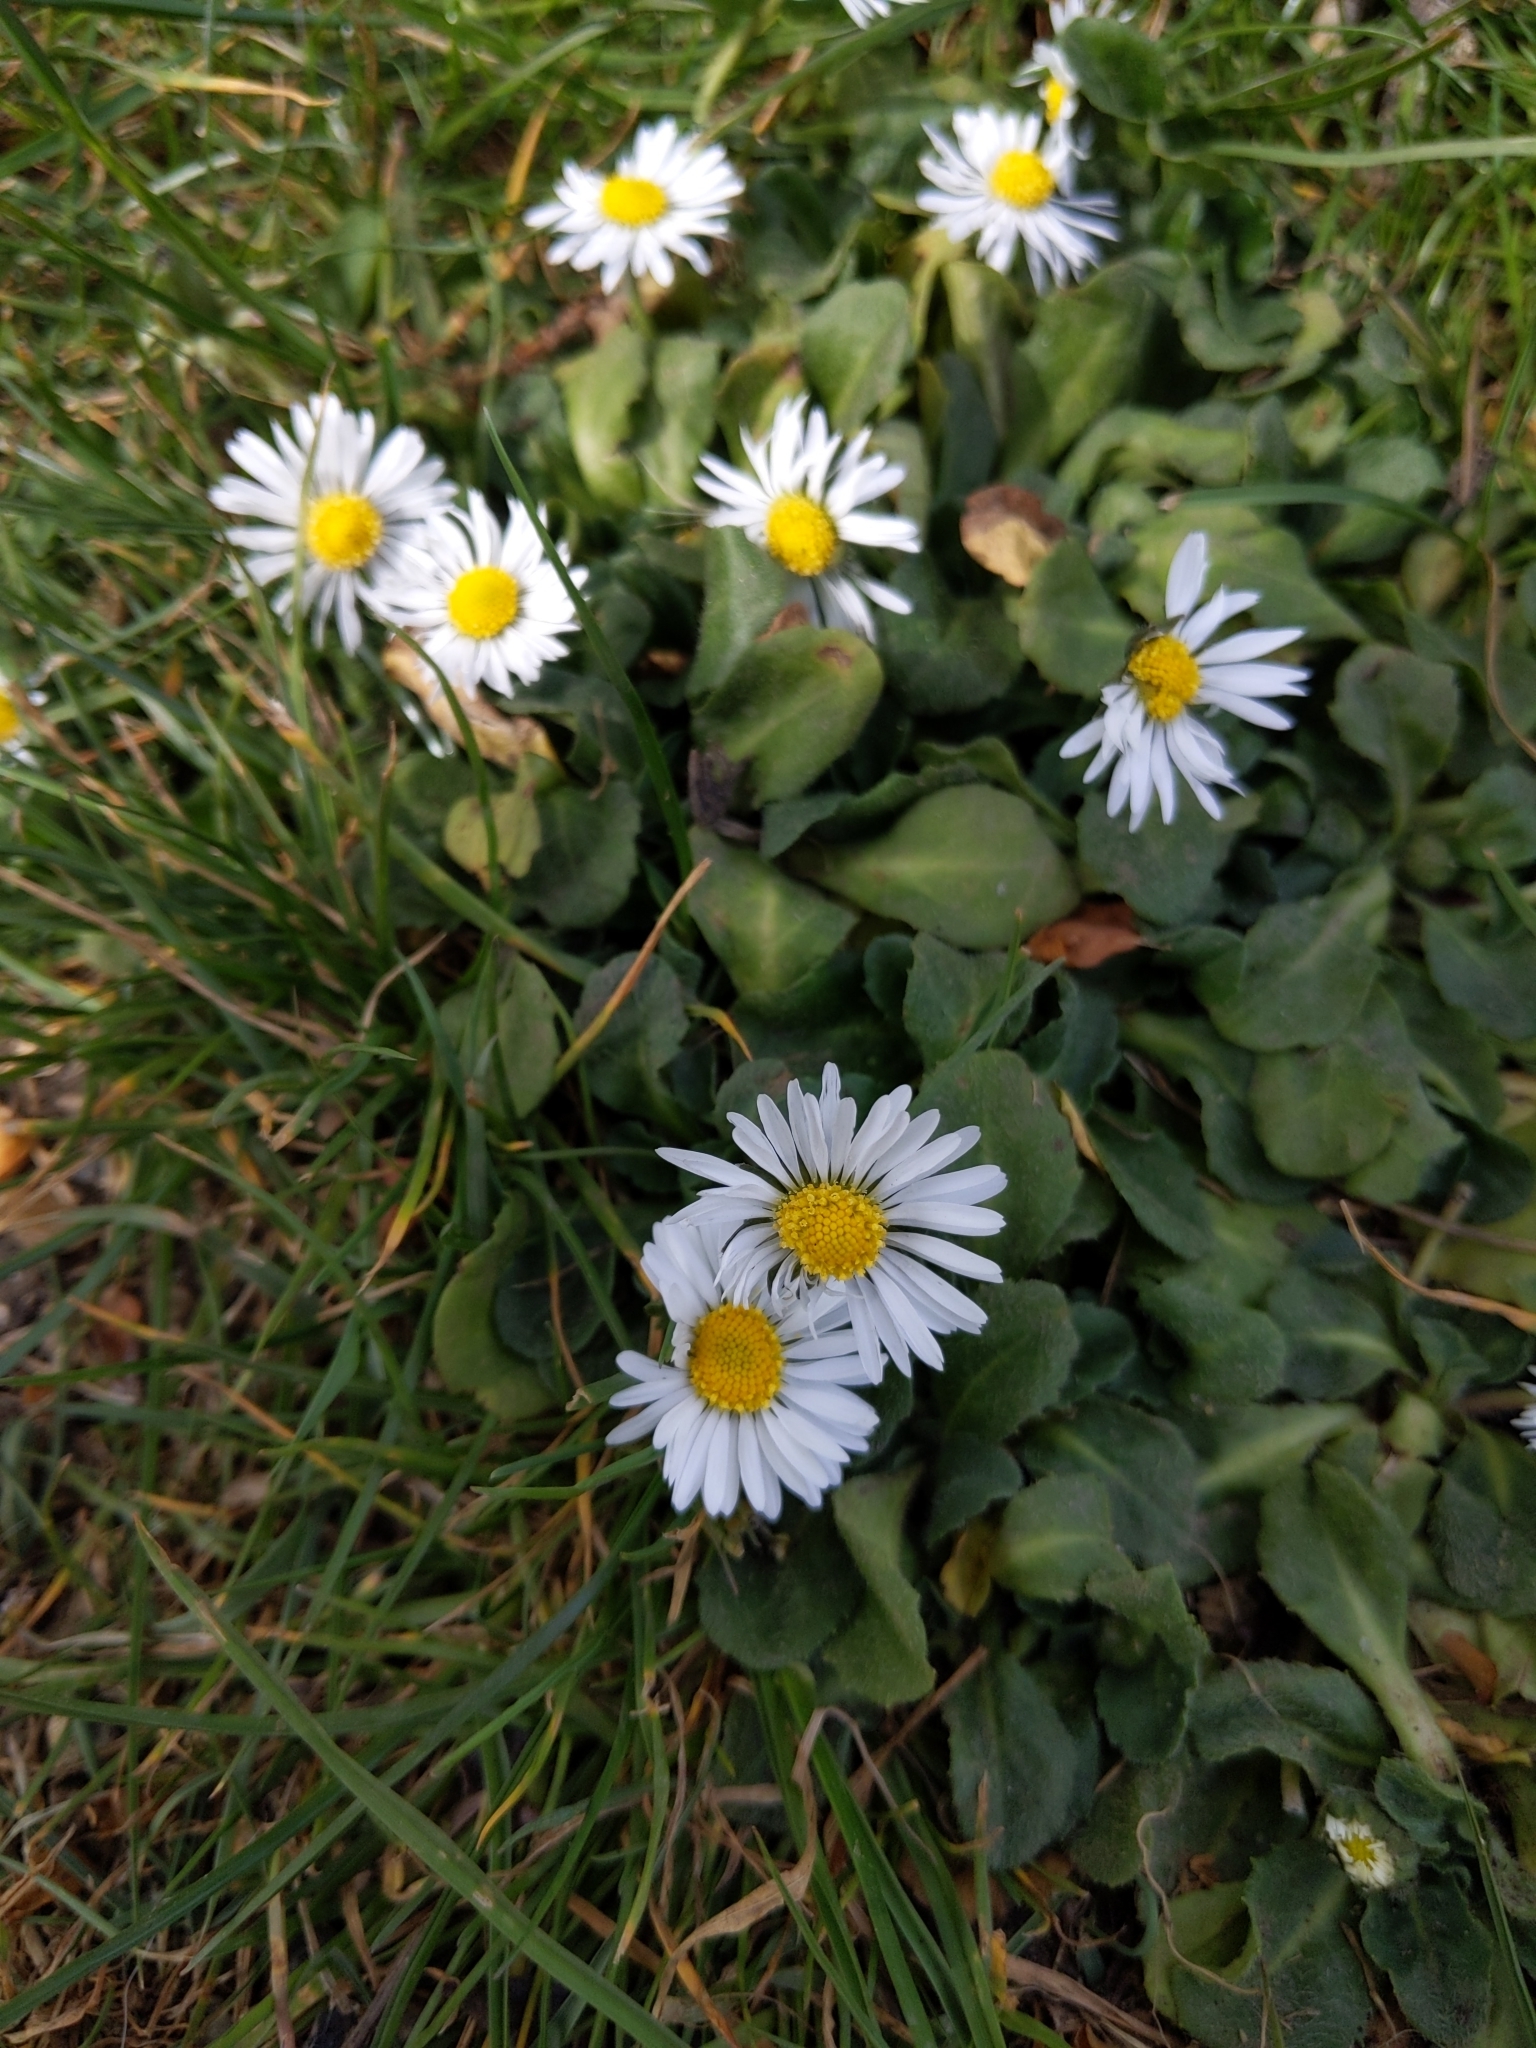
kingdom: Plantae
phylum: Tracheophyta
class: Magnoliopsida
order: Asterales
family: Asteraceae
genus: Bellis
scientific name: Bellis perennis
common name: Lawndaisy
